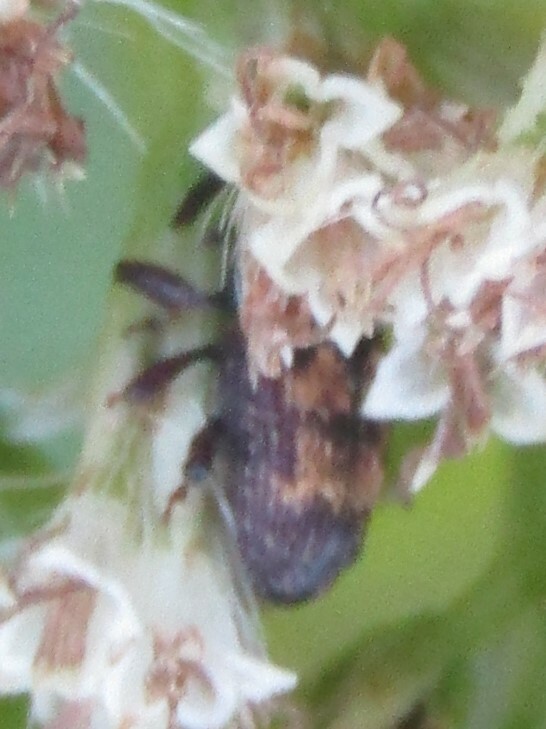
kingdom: Animalia
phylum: Arthropoda
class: Insecta
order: Coleoptera
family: Curculionidae
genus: Glyptobaris
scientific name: Glyptobaris lecontei
